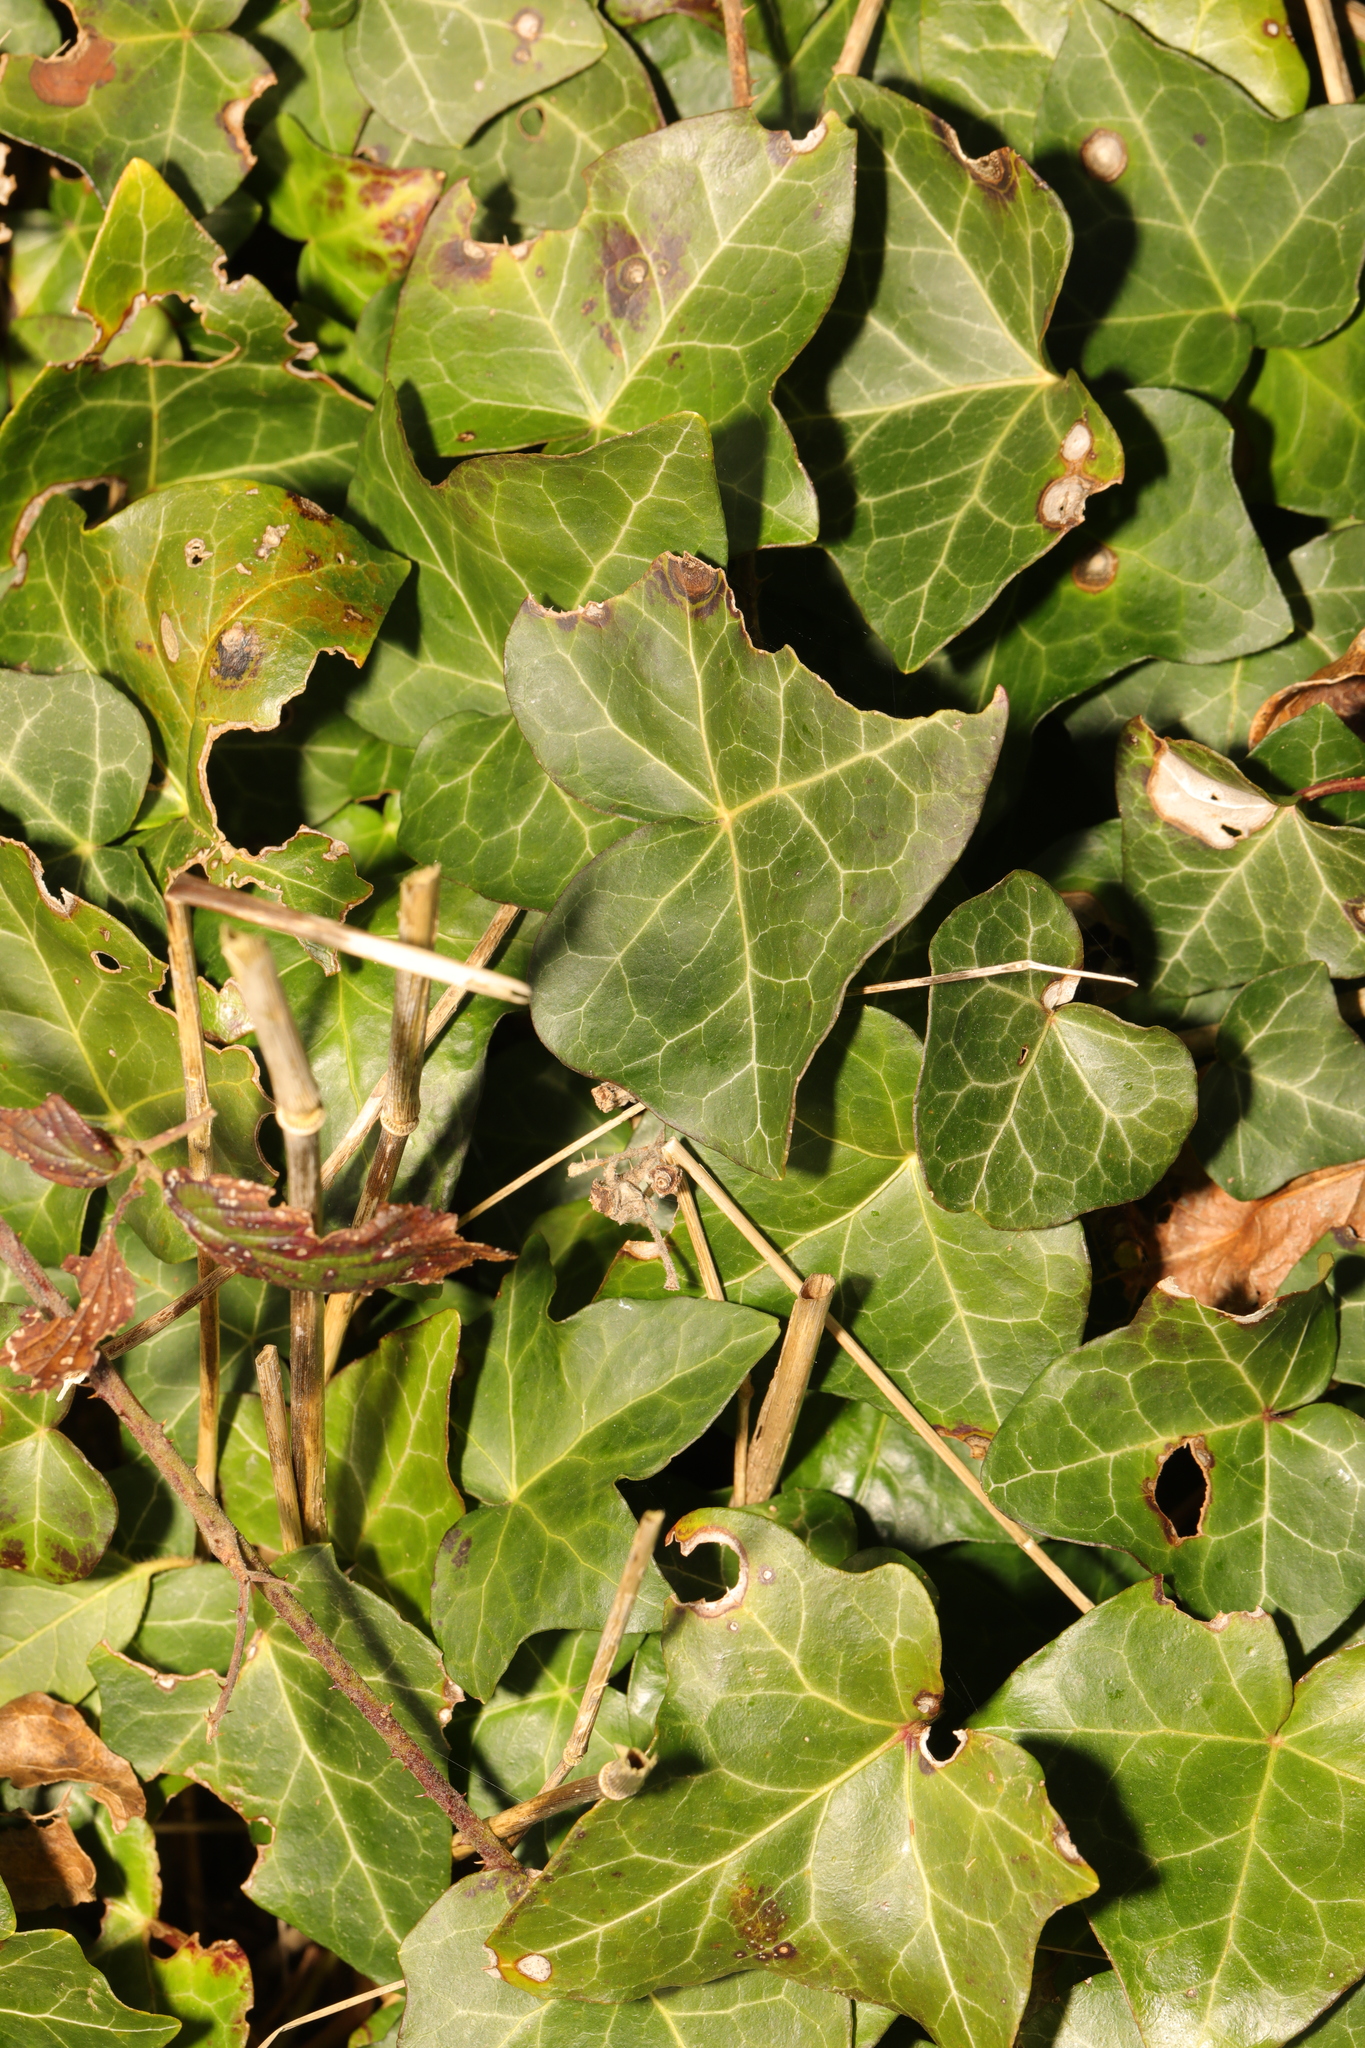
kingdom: Plantae
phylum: Tracheophyta
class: Magnoliopsida
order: Apiales
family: Araliaceae
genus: Hedera
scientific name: Hedera helix
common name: Ivy
